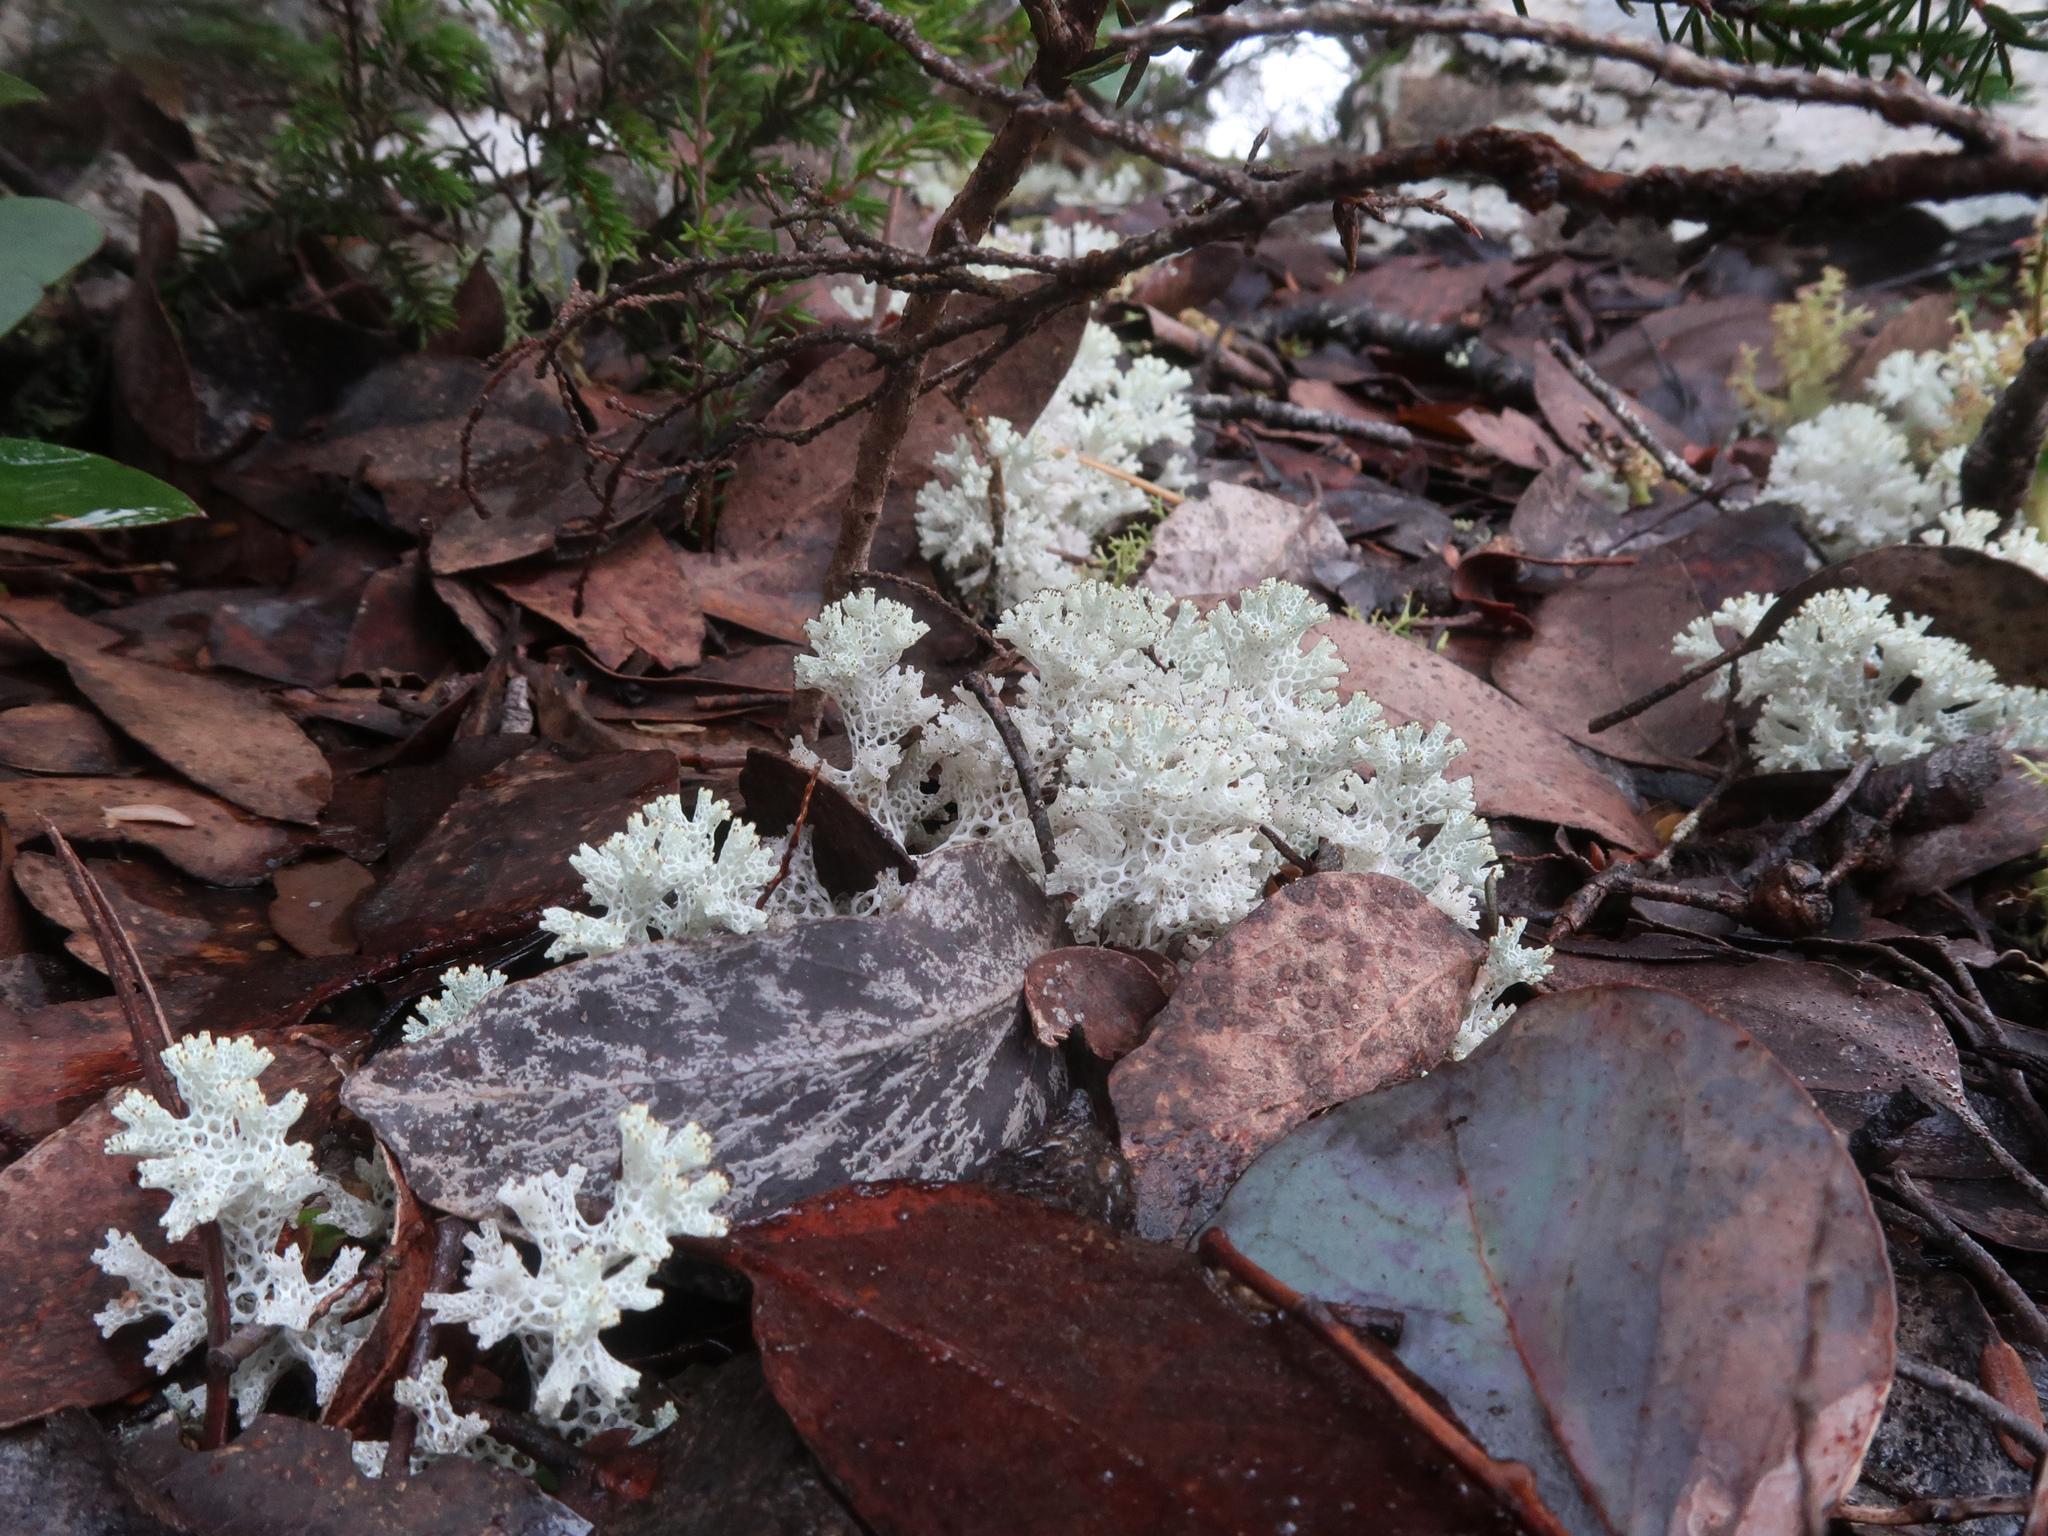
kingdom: Fungi
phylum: Ascomycota
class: Lecanoromycetes
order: Lecanorales
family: Cladoniaceae
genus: Pulchrocladia
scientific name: Pulchrocladia retipora
